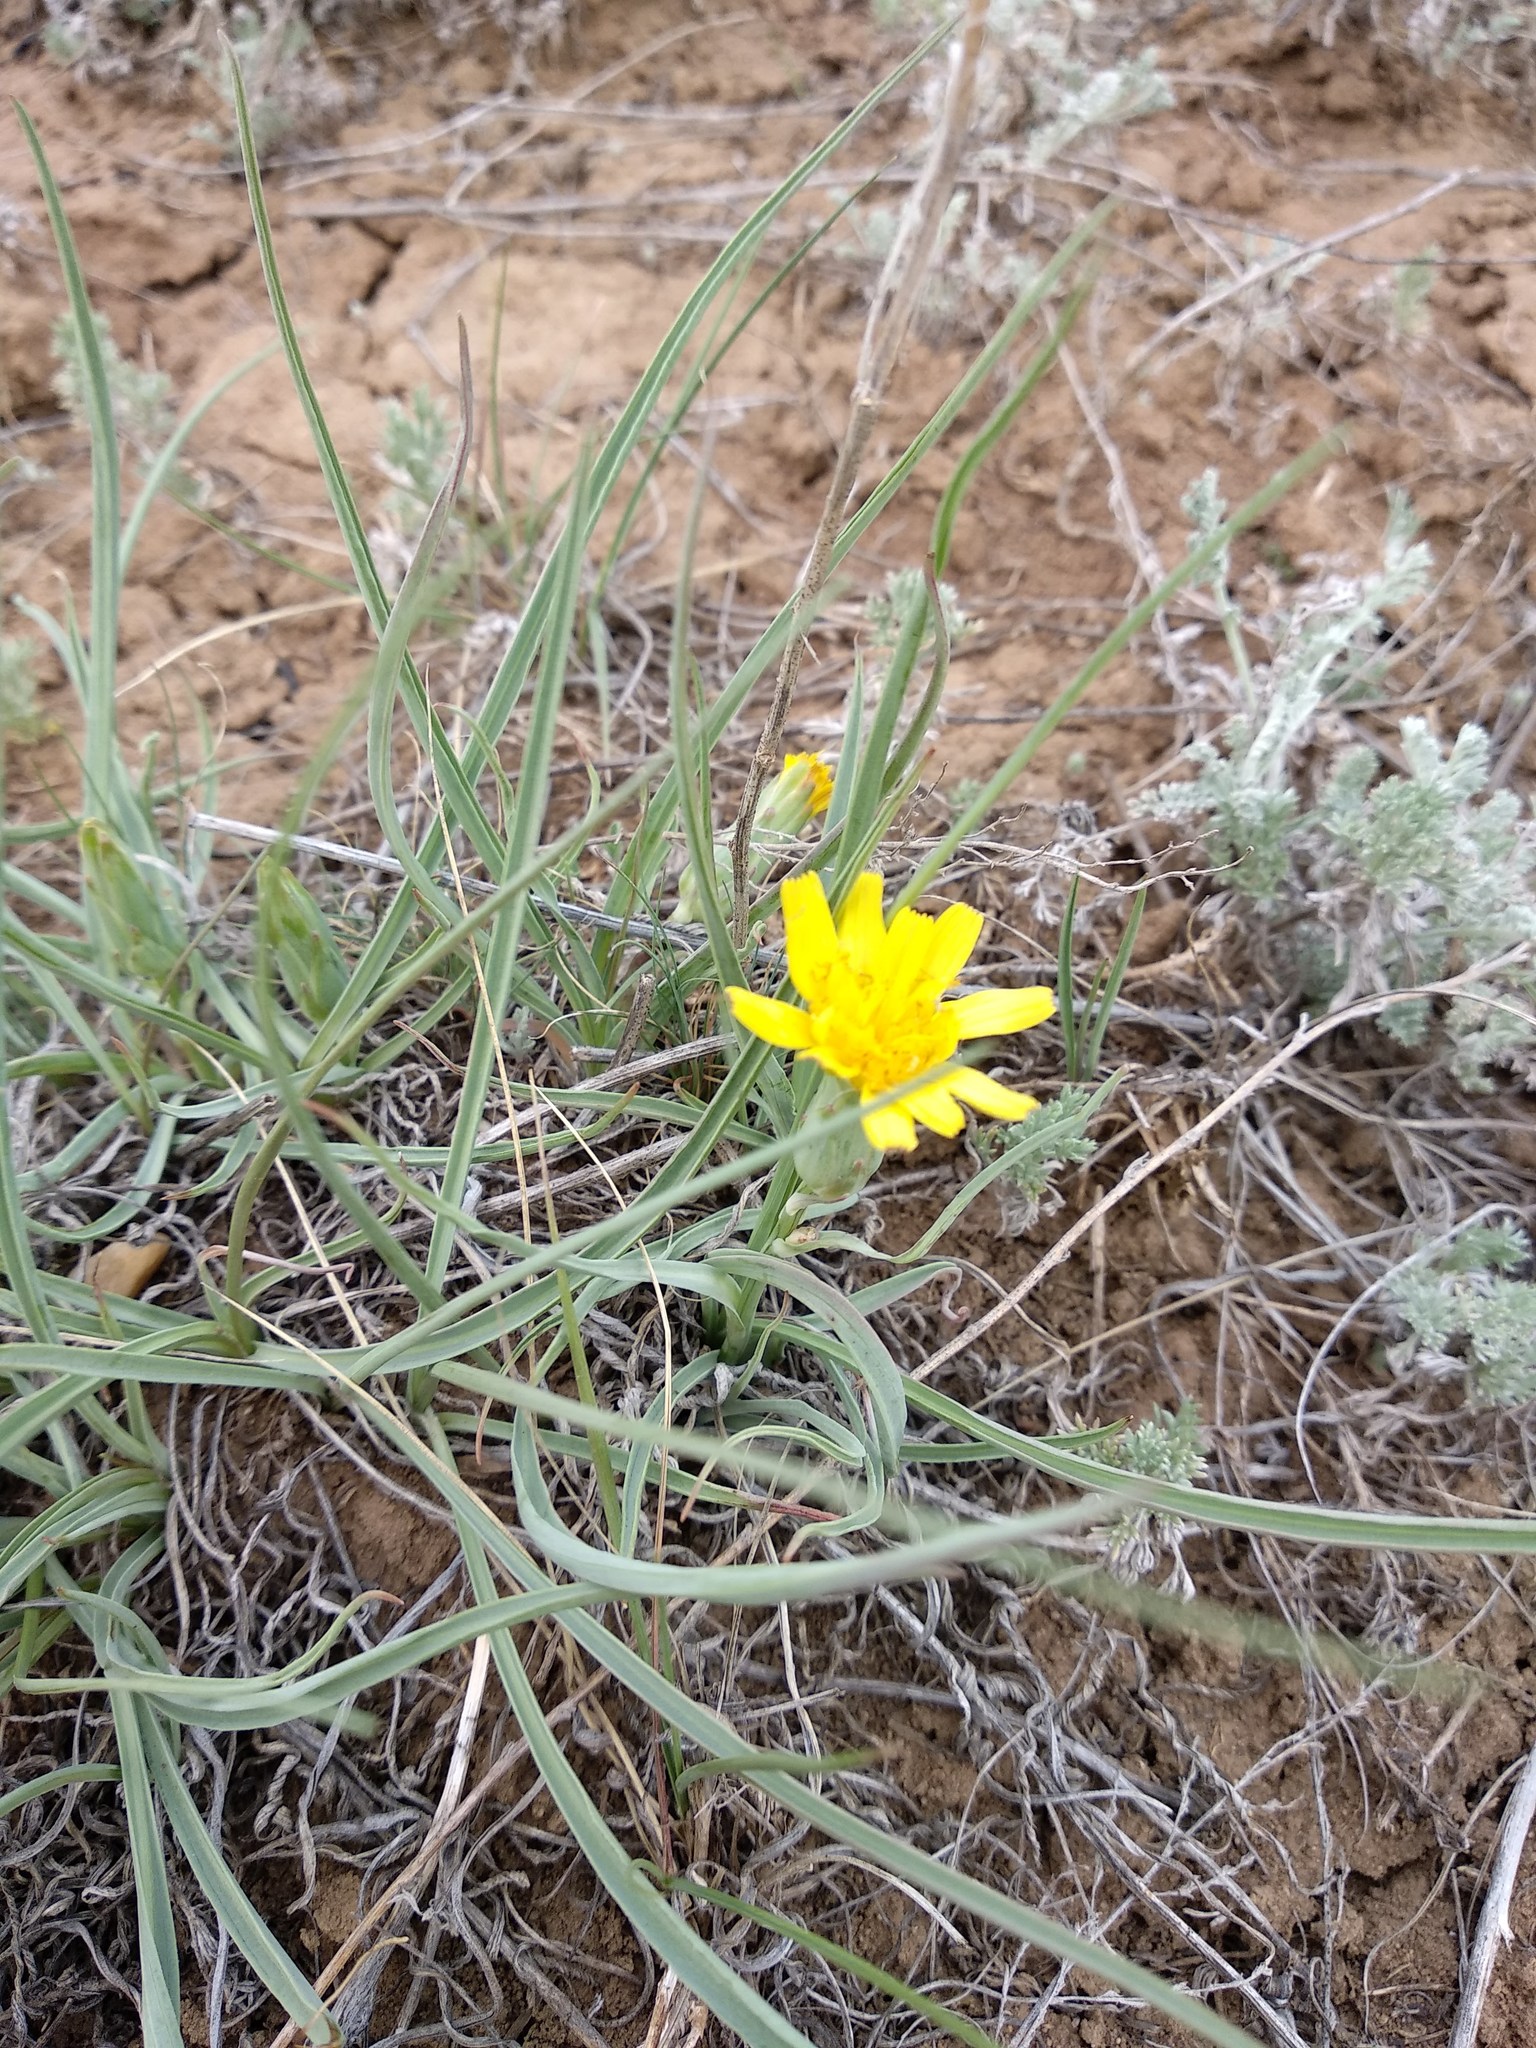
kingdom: Plantae
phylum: Tracheophyta
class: Magnoliopsida
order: Asterales
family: Asteraceae
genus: Takhtajaniantha
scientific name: Takhtajaniantha austriaca
